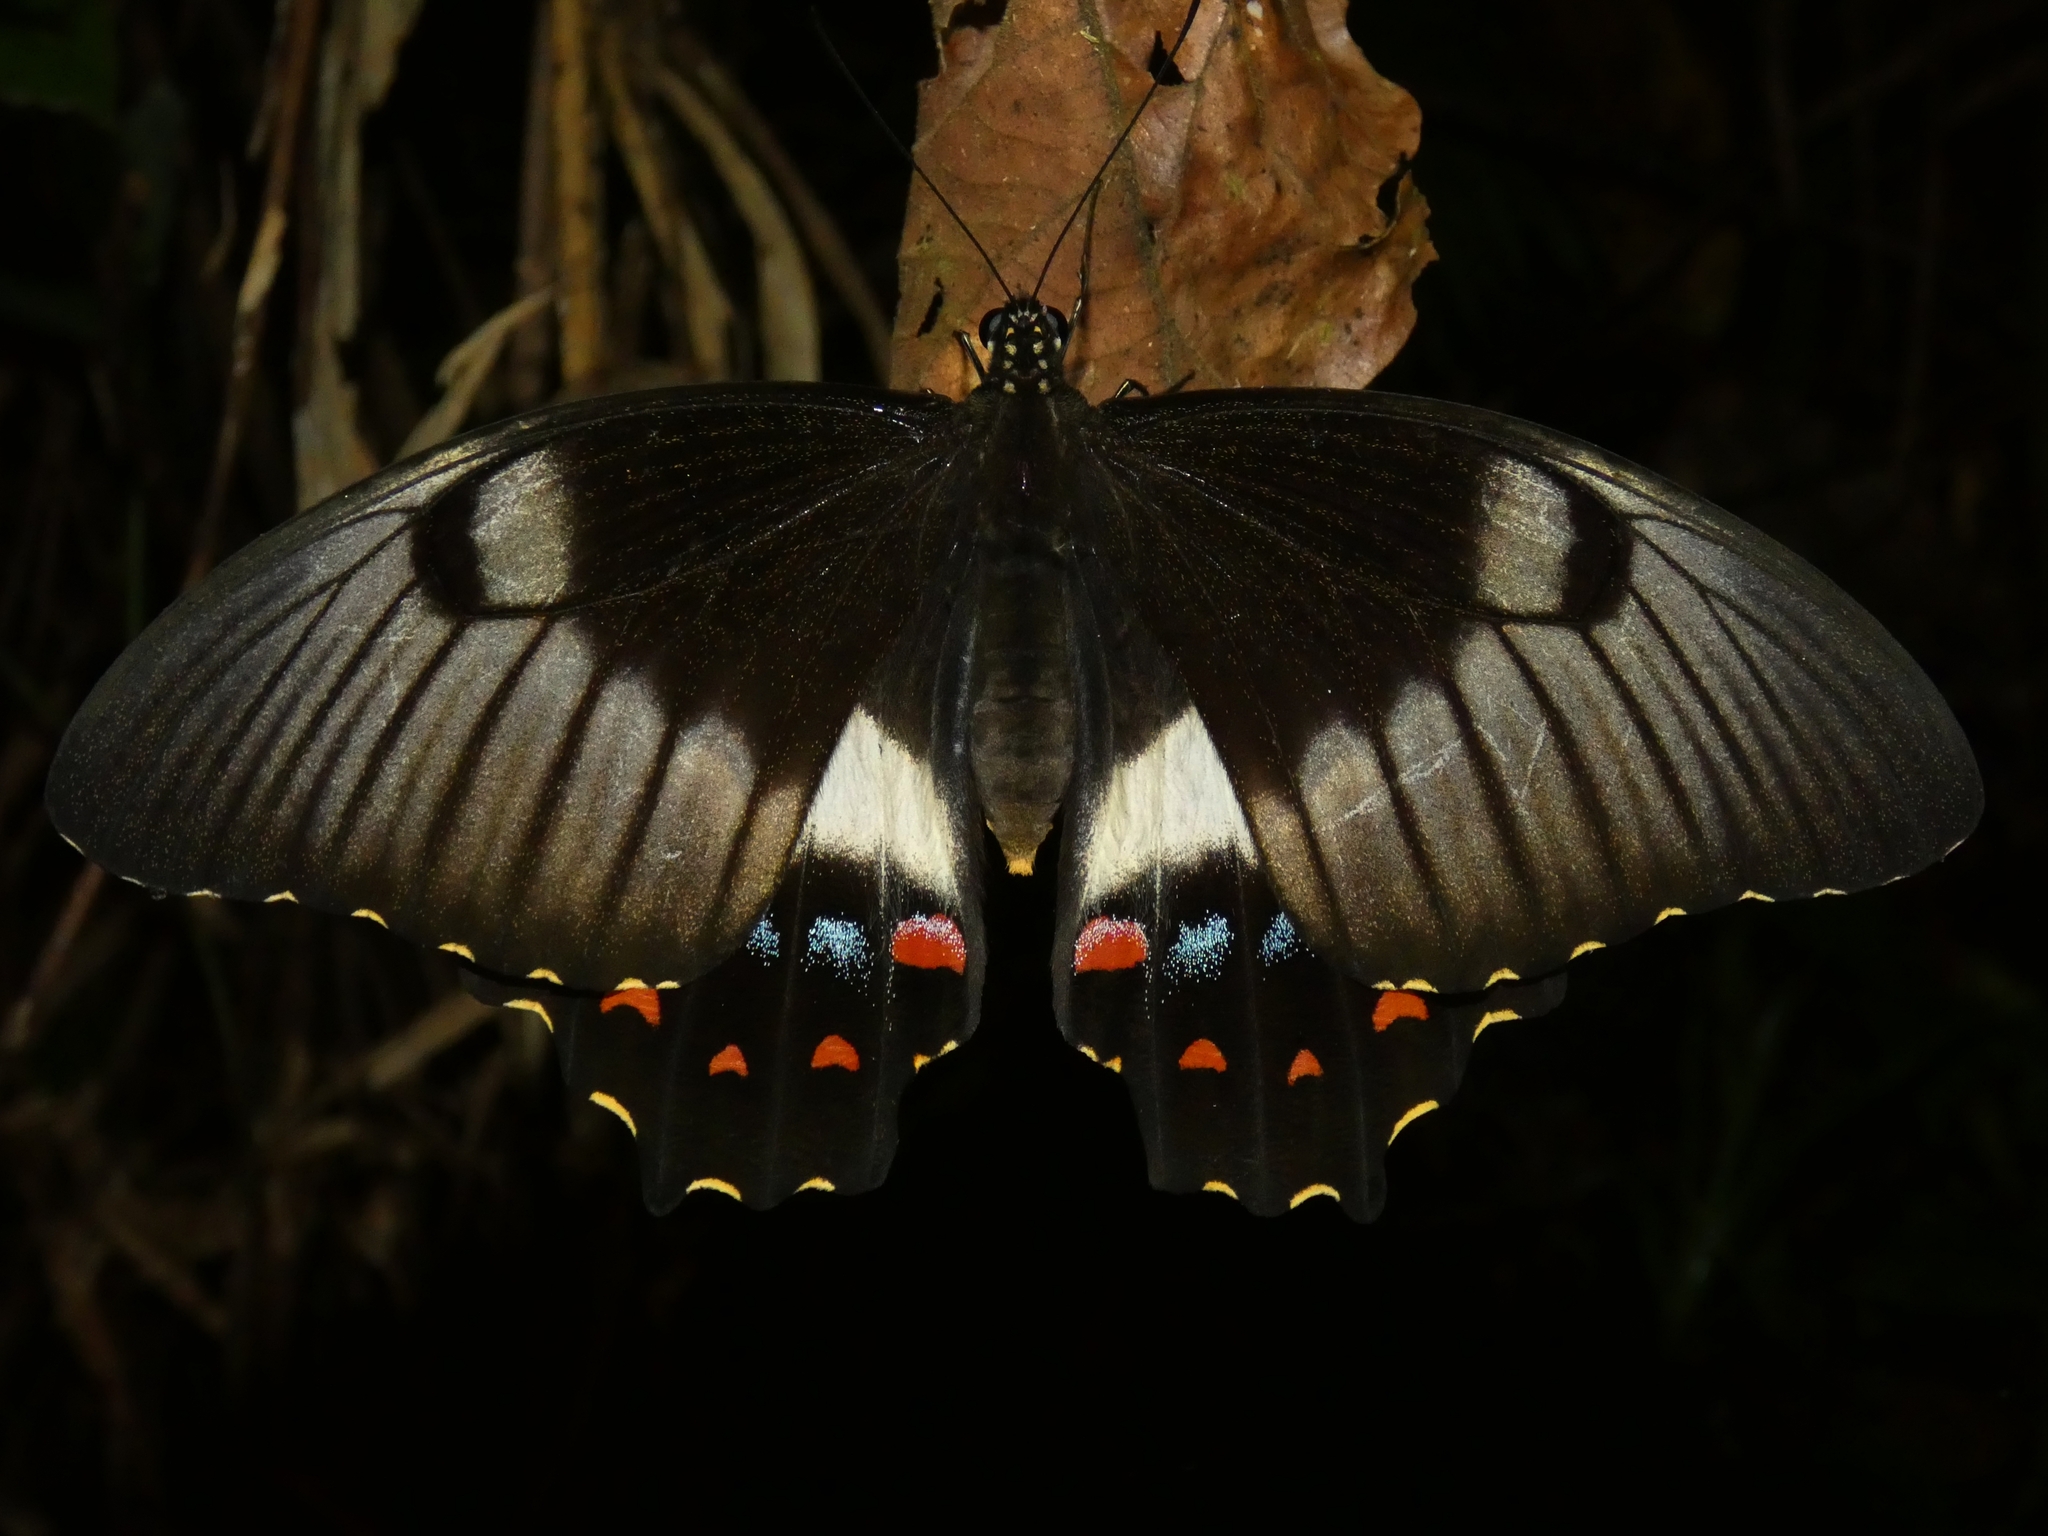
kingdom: Animalia
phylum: Arthropoda
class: Insecta
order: Lepidoptera
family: Papilionidae
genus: Papilio
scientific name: Papilio aegeus
